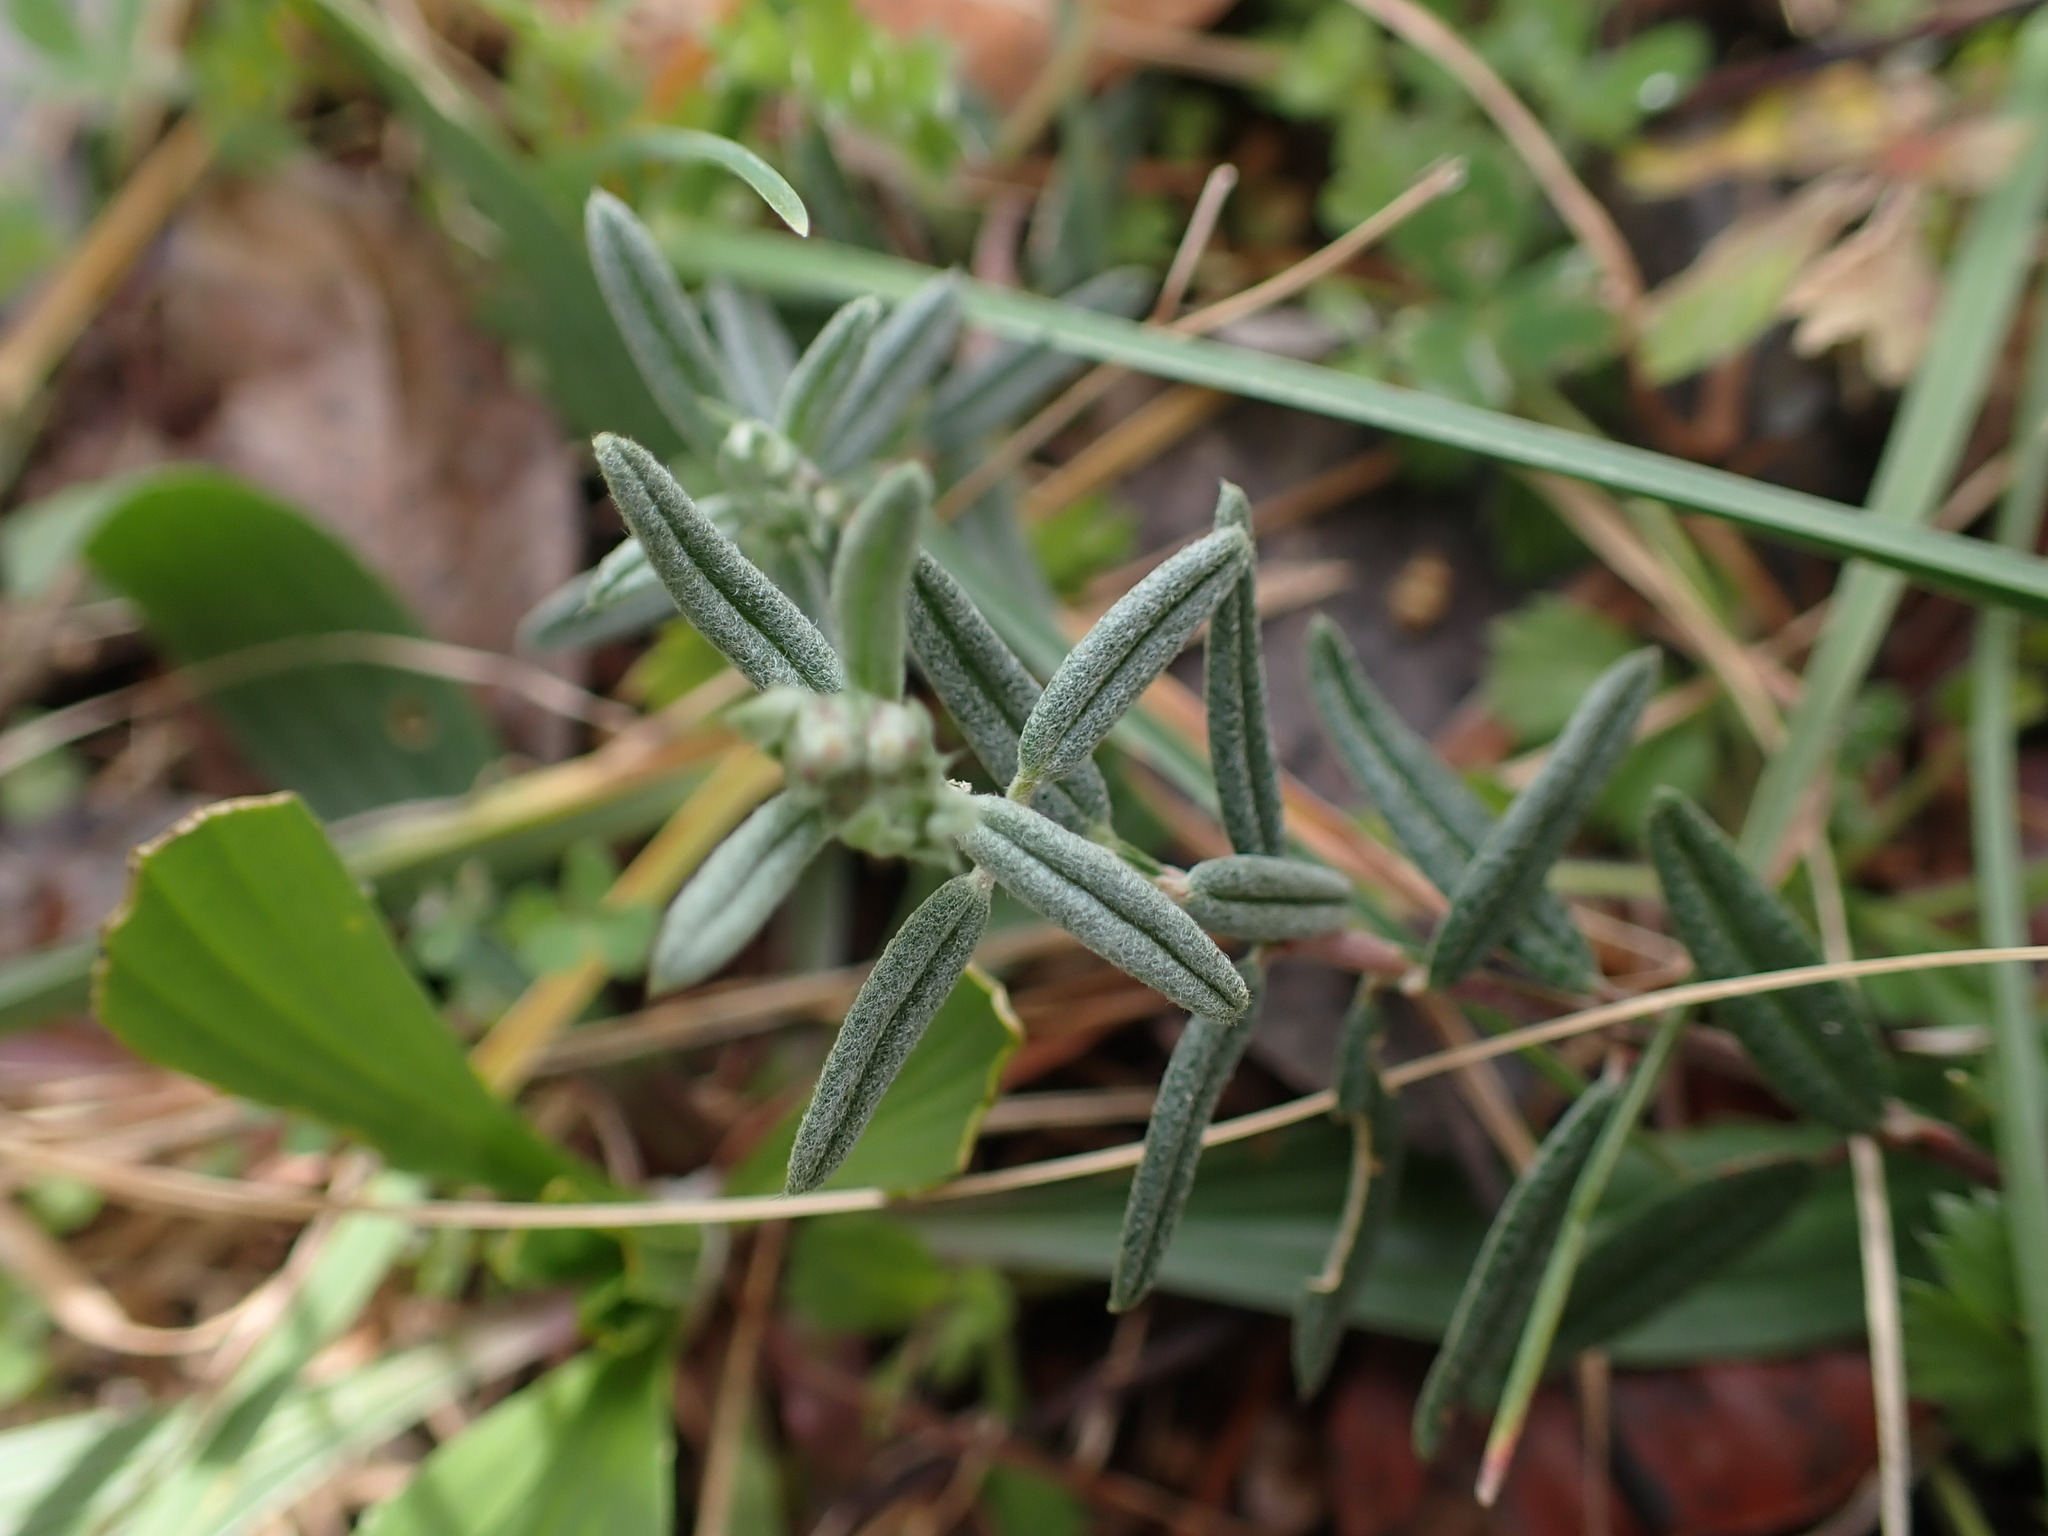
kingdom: Plantae
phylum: Tracheophyta
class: Magnoliopsida
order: Malvales
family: Cistaceae
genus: Helianthemum
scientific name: Helianthemum apenninum
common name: White rock-rose
